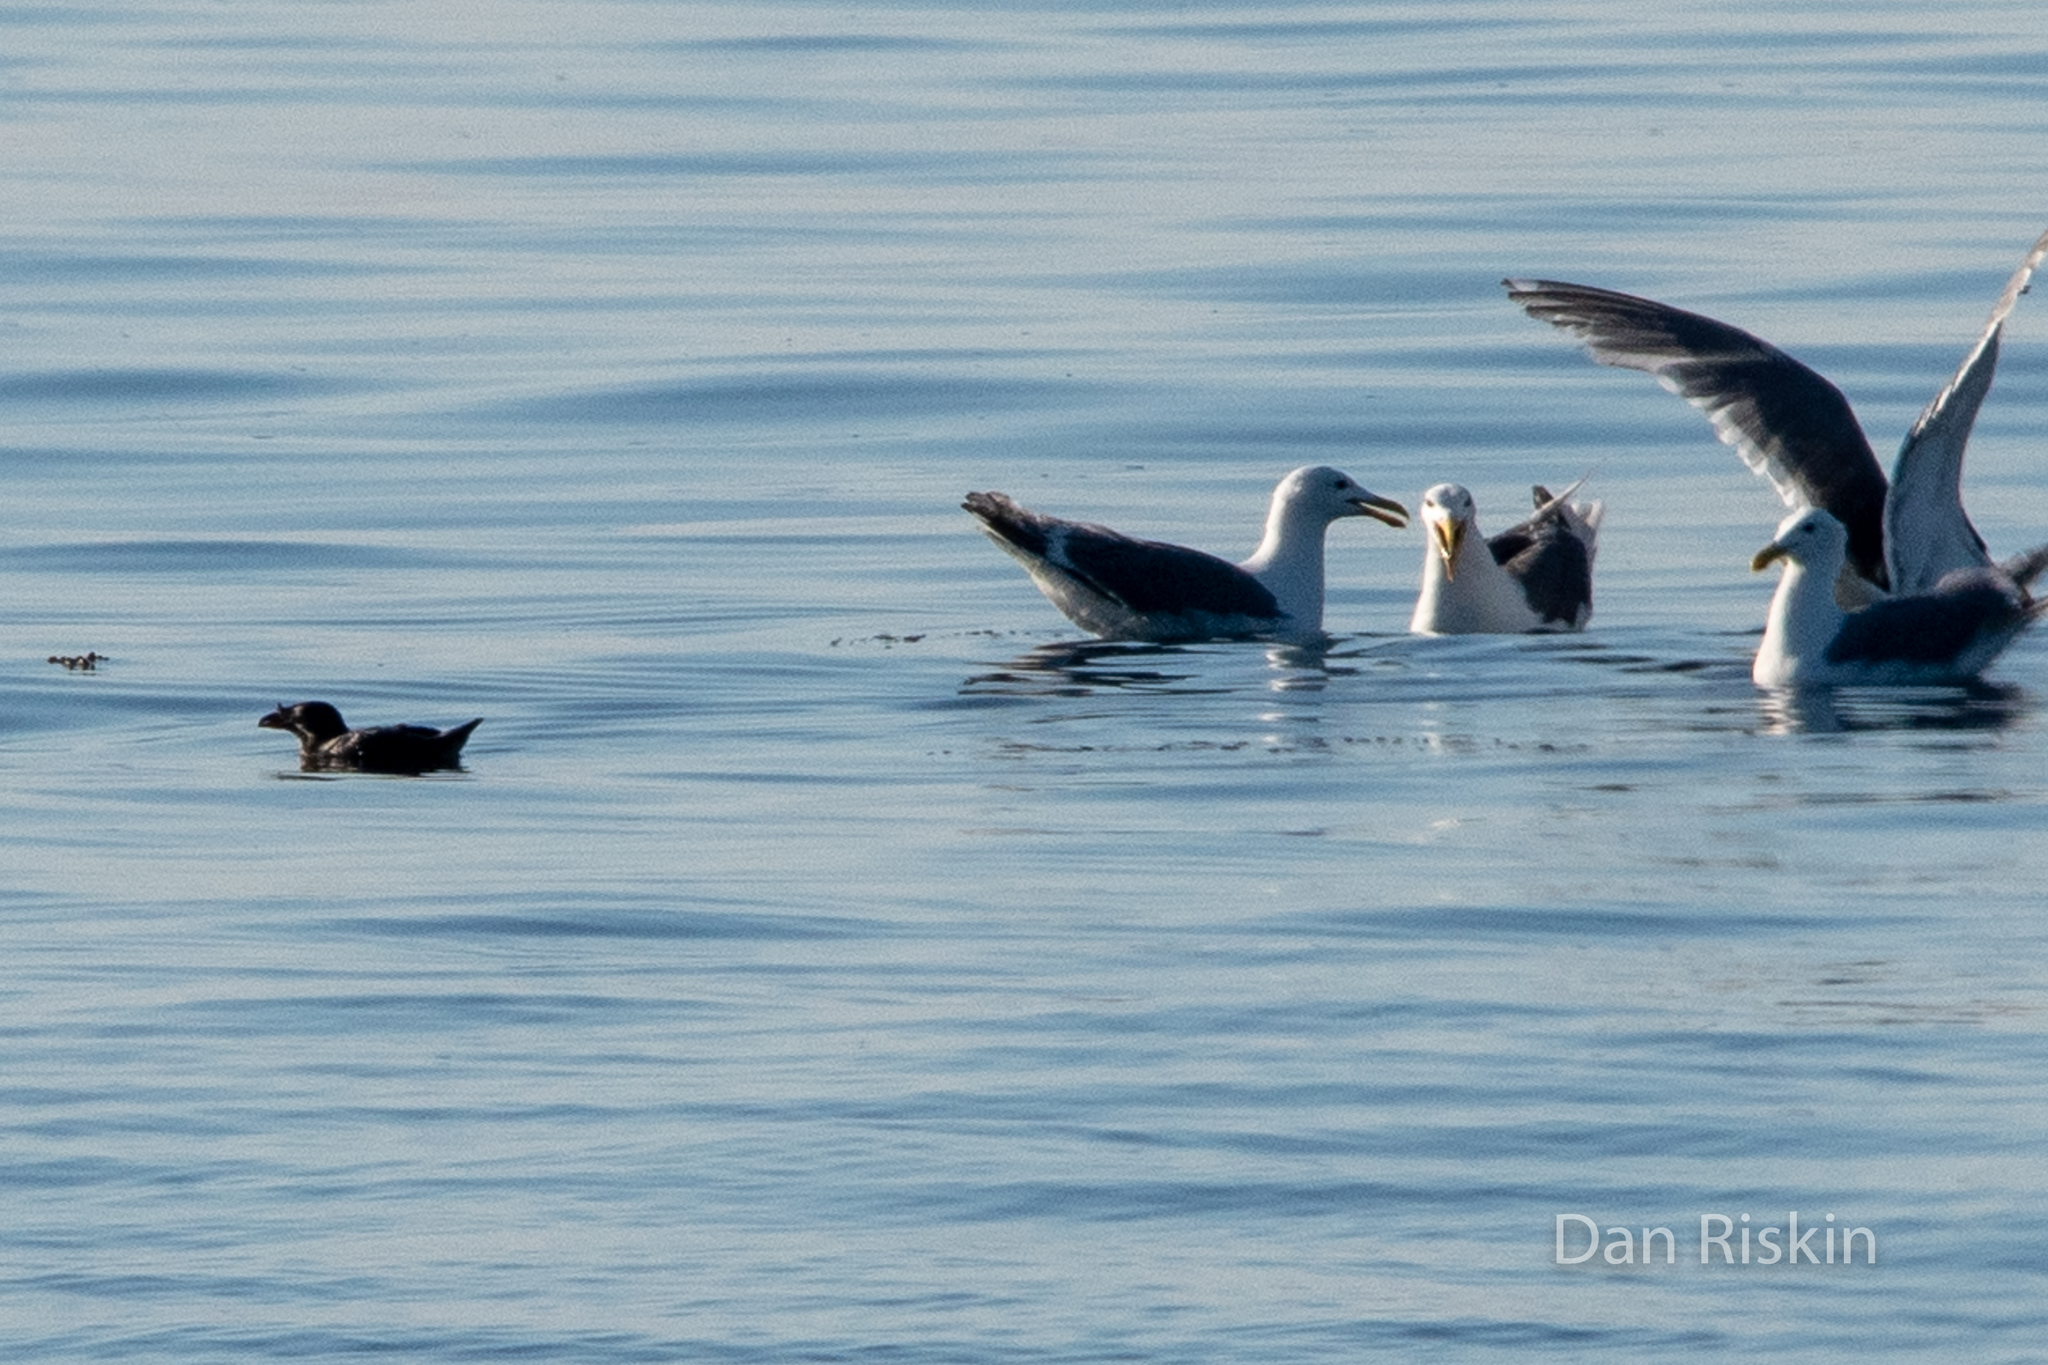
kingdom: Animalia
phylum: Chordata
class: Aves
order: Charadriiformes
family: Alcidae
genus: Cerorhinca
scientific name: Cerorhinca monocerata
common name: Rhinoceros auklet
